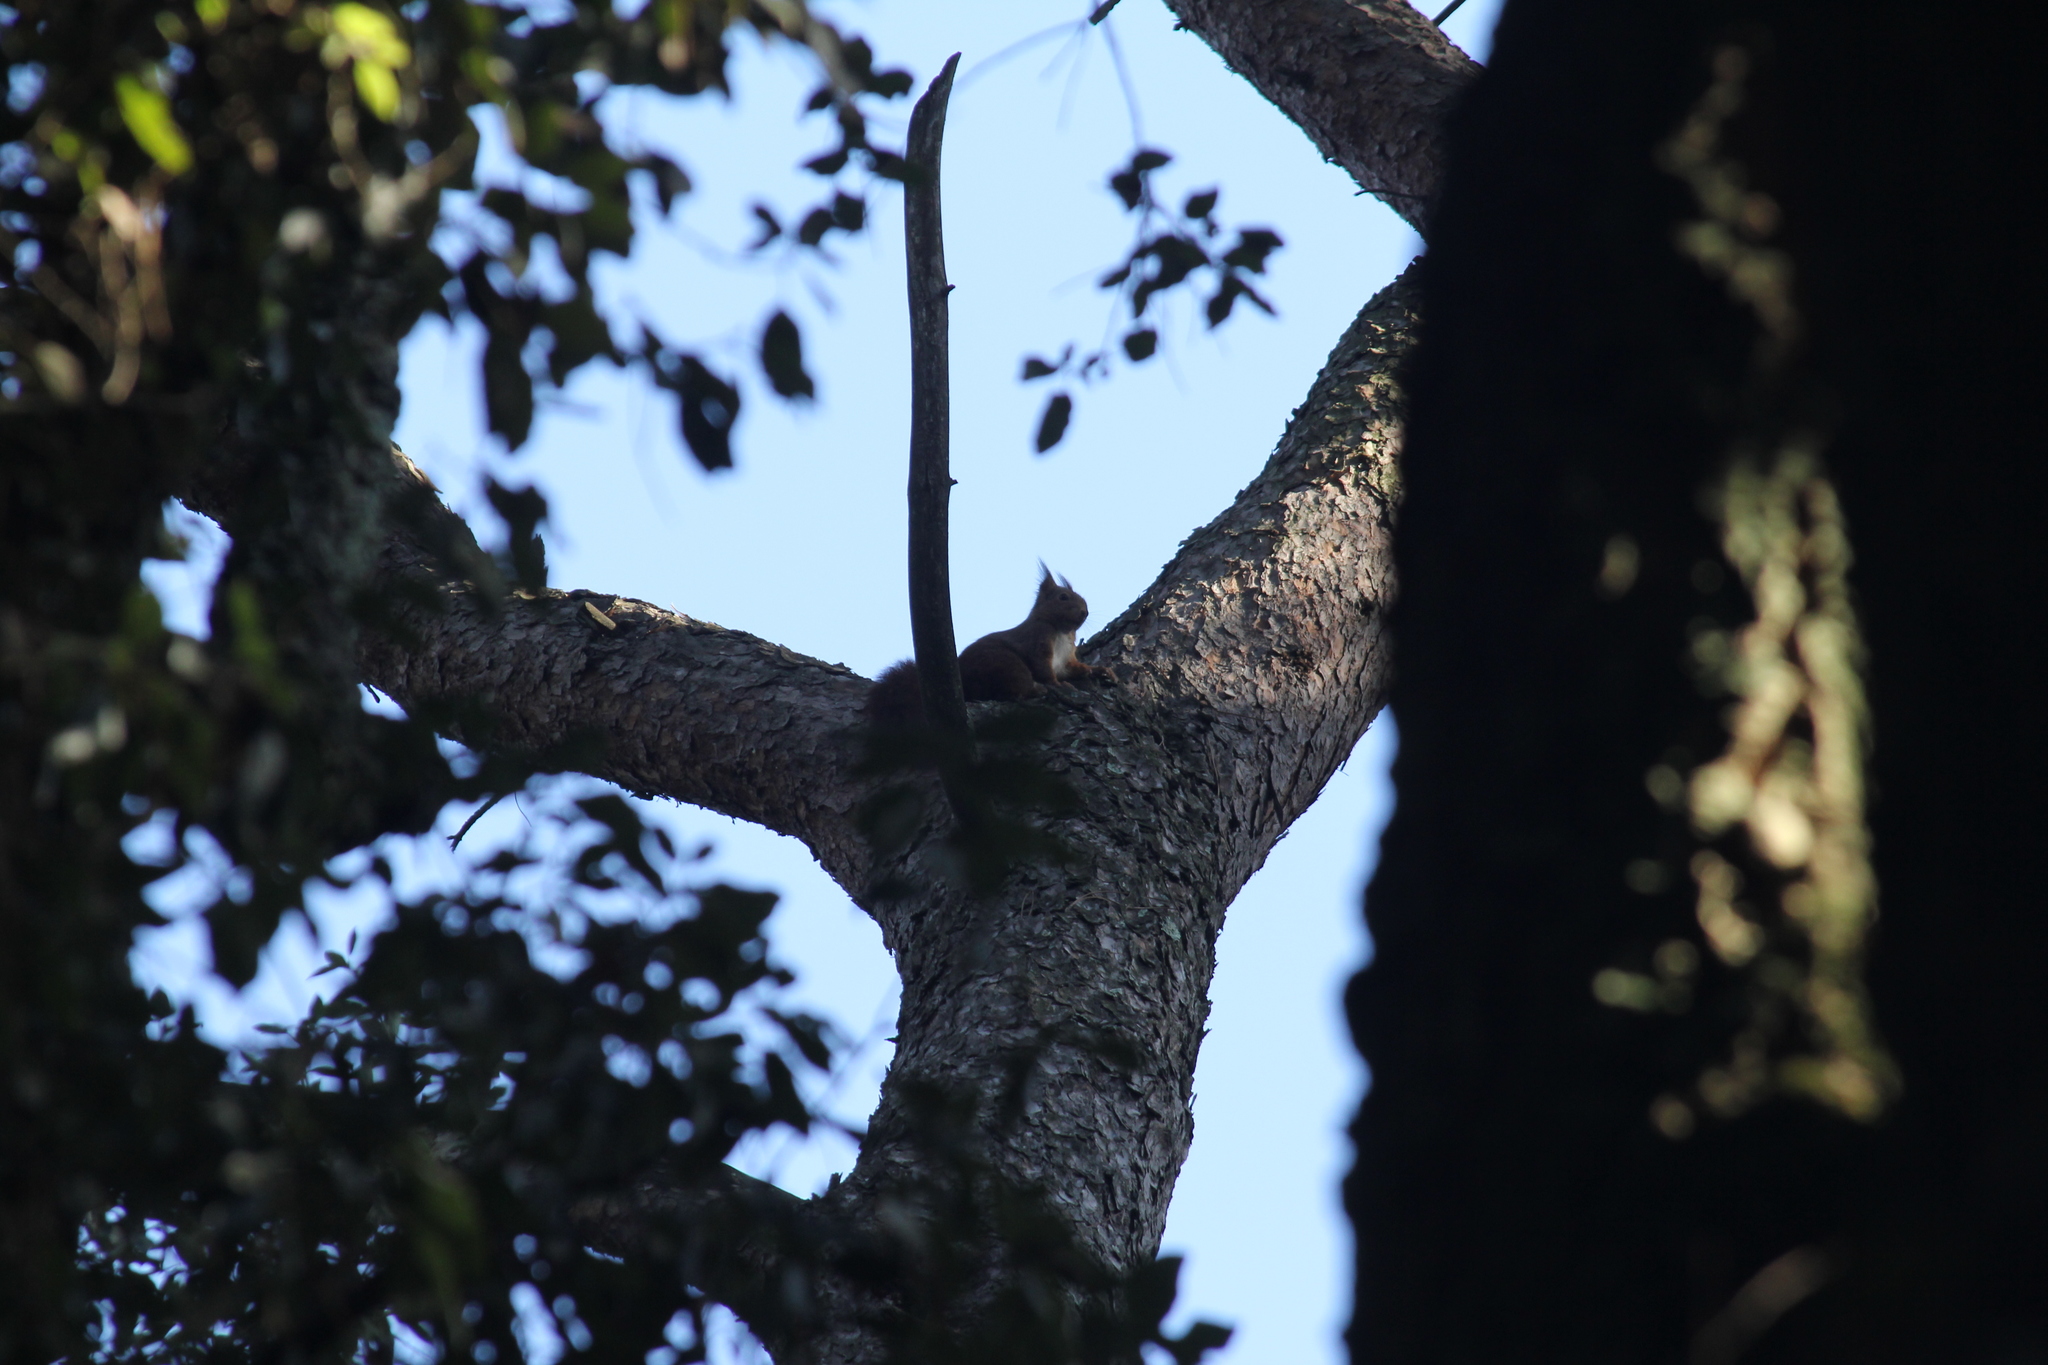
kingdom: Animalia
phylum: Chordata
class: Mammalia
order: Rodentia
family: Sciuridae
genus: Sciurus
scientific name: Sciurus vulgaris
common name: Eurasian red squirrel
